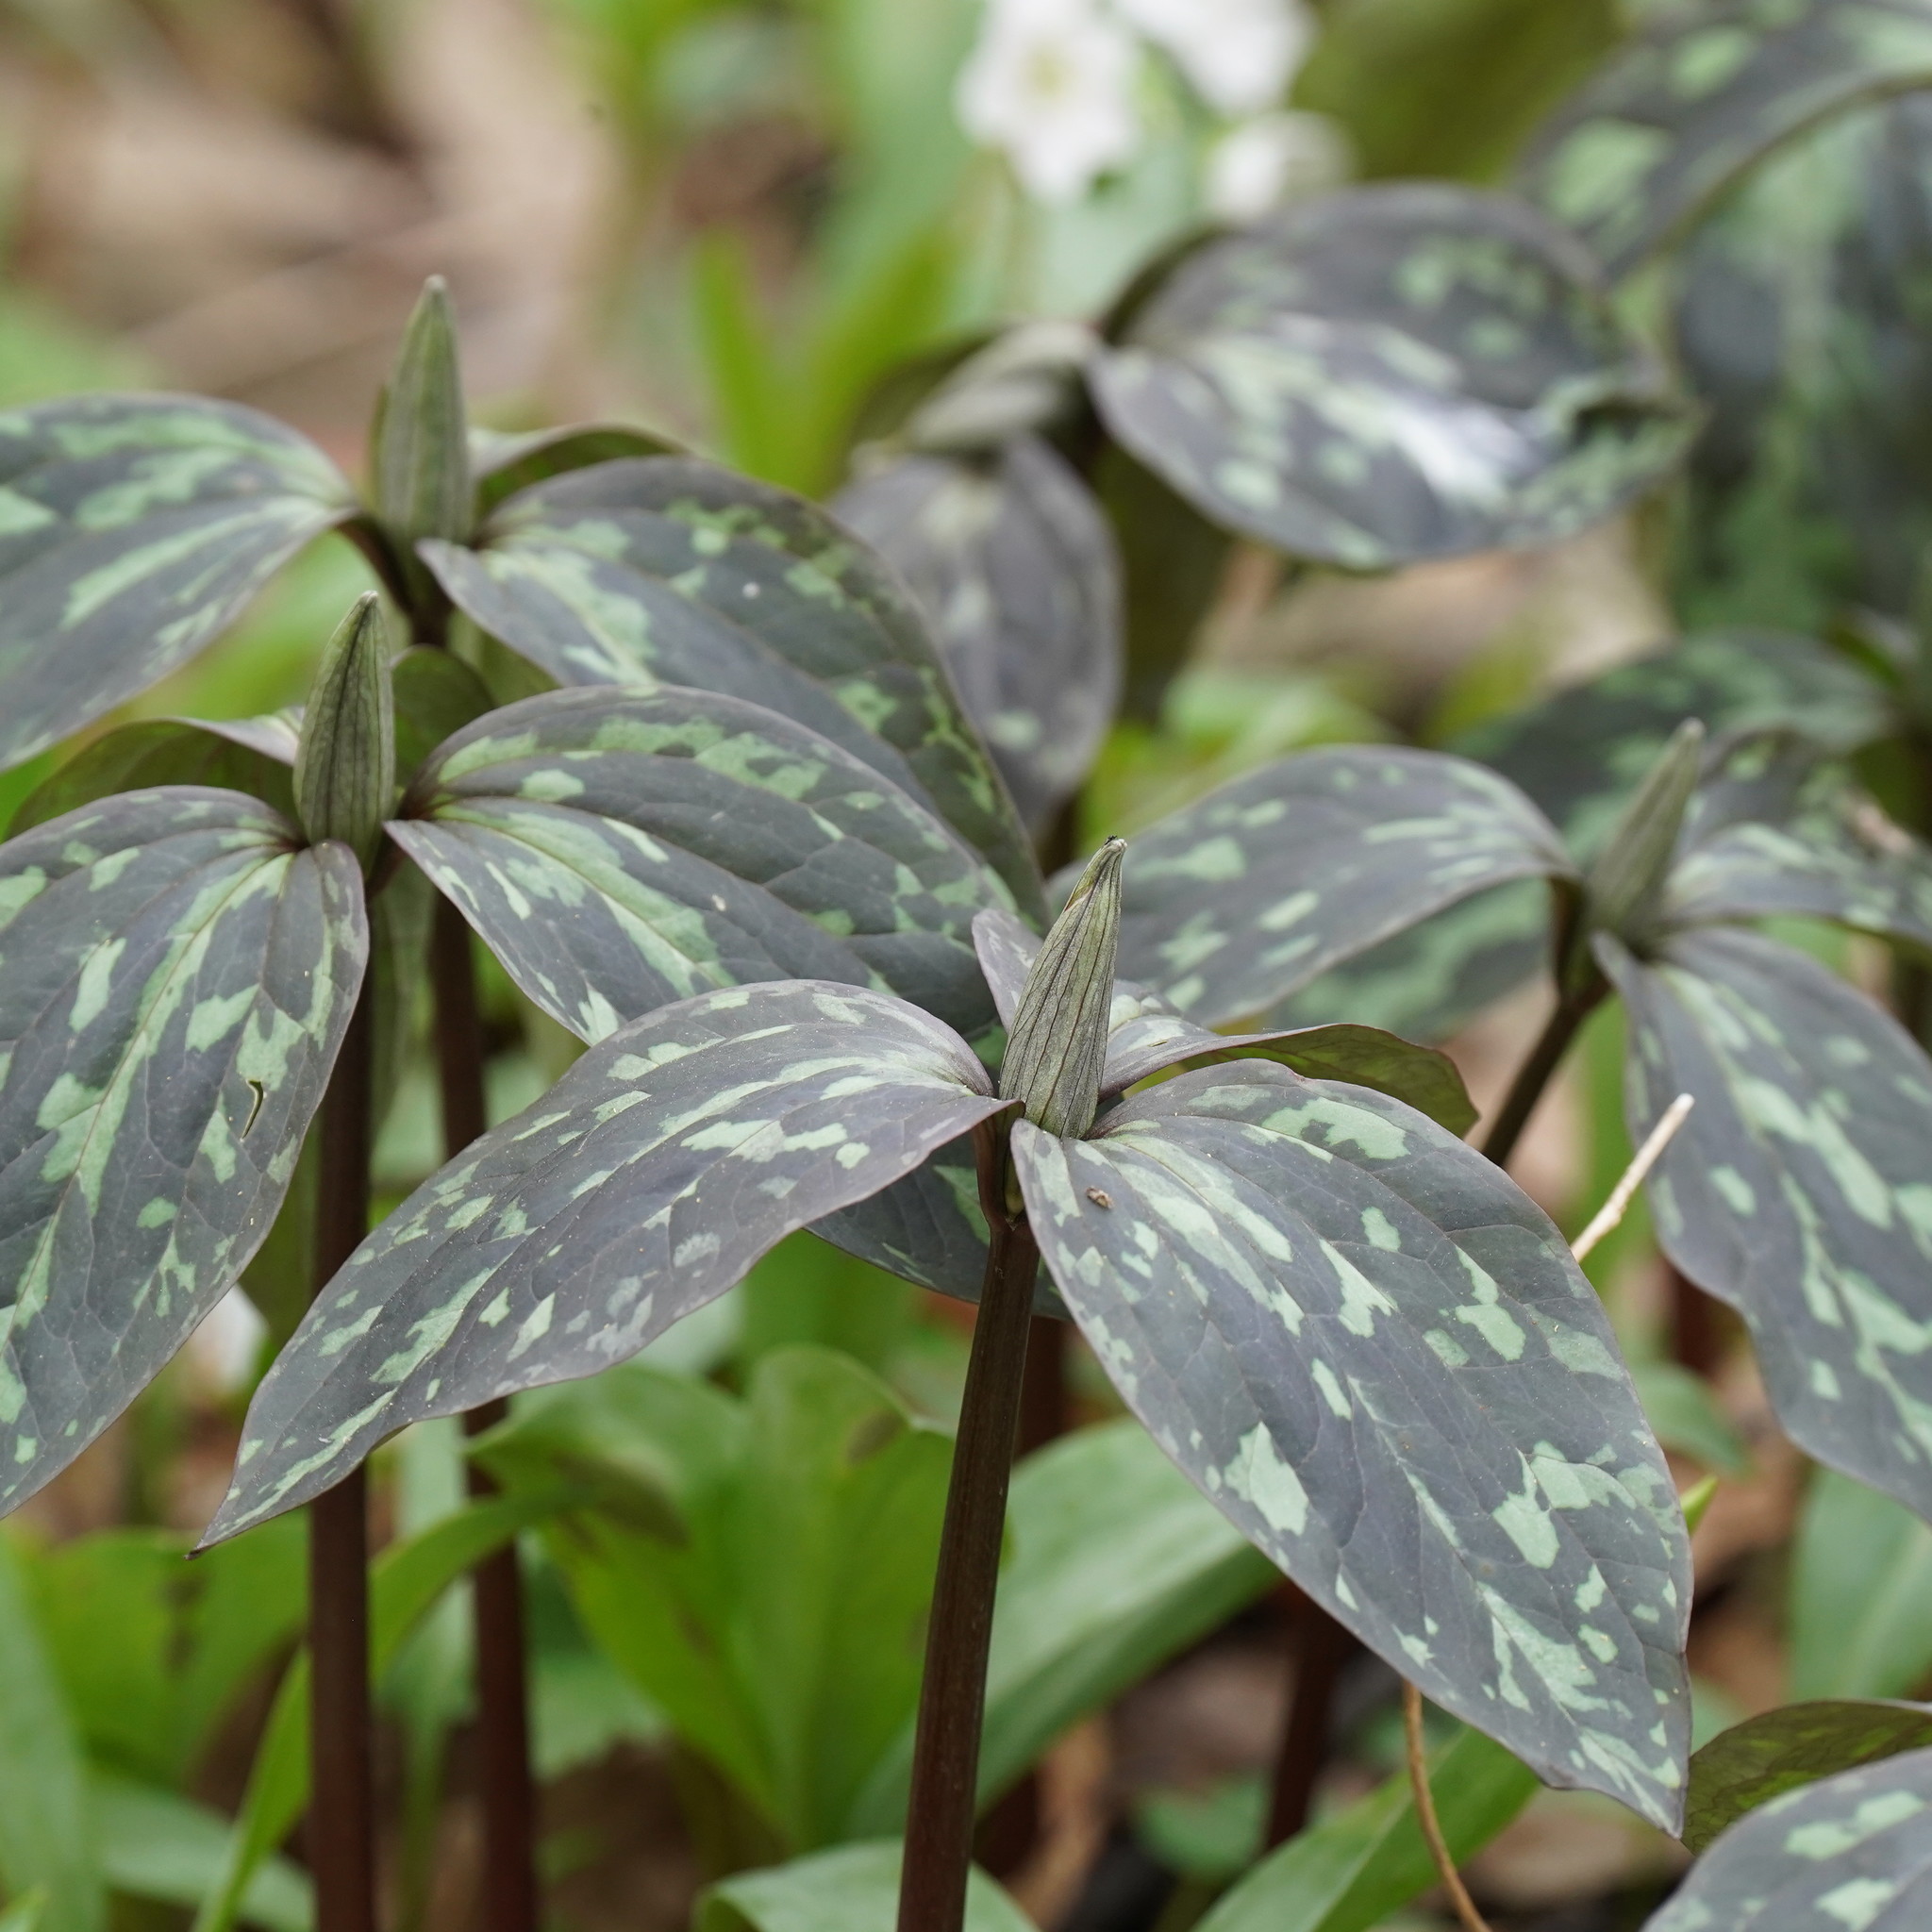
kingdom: Plantae
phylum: Tracheophyta
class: Liliopsida
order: Liliales
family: Melanthiaceae
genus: Trillium
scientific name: Trillium recurvatum
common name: Bloody butcher
